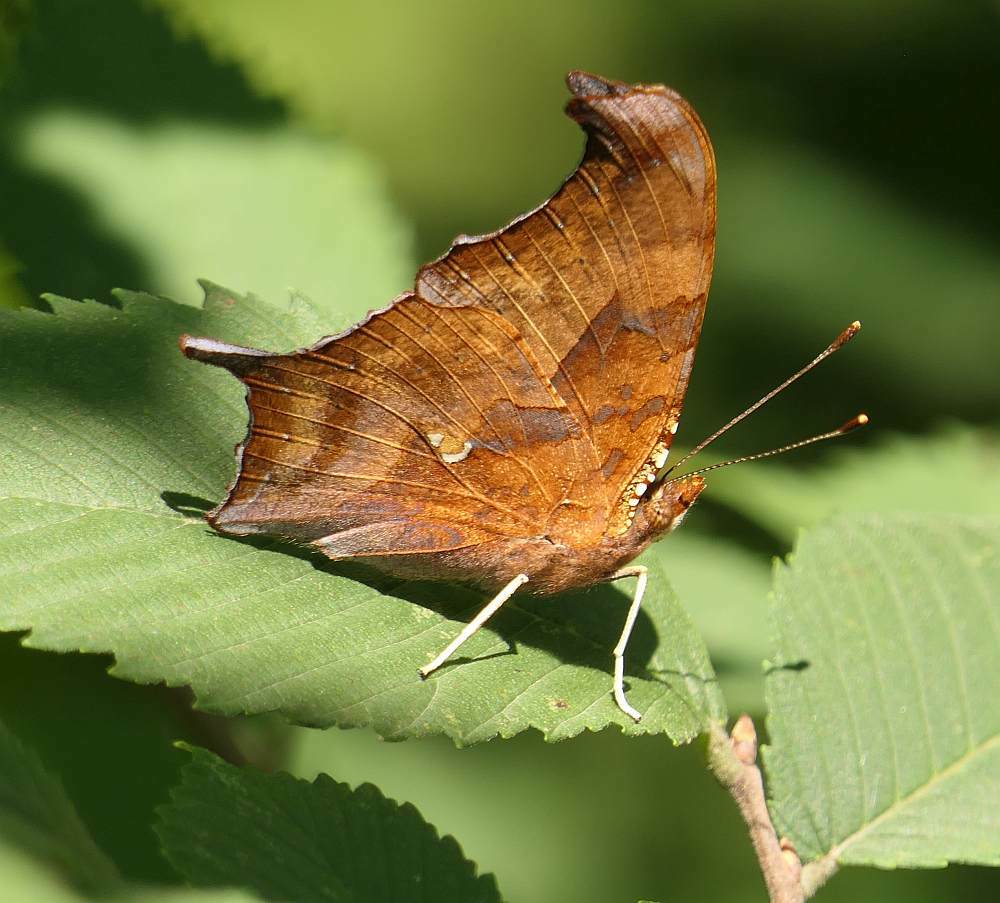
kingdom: Animalia
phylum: Arthropoda
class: Insecta
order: Lepidoptera
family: Nymphalidae
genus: Polygonia
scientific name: Polygonia interrogationis
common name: Question mark
